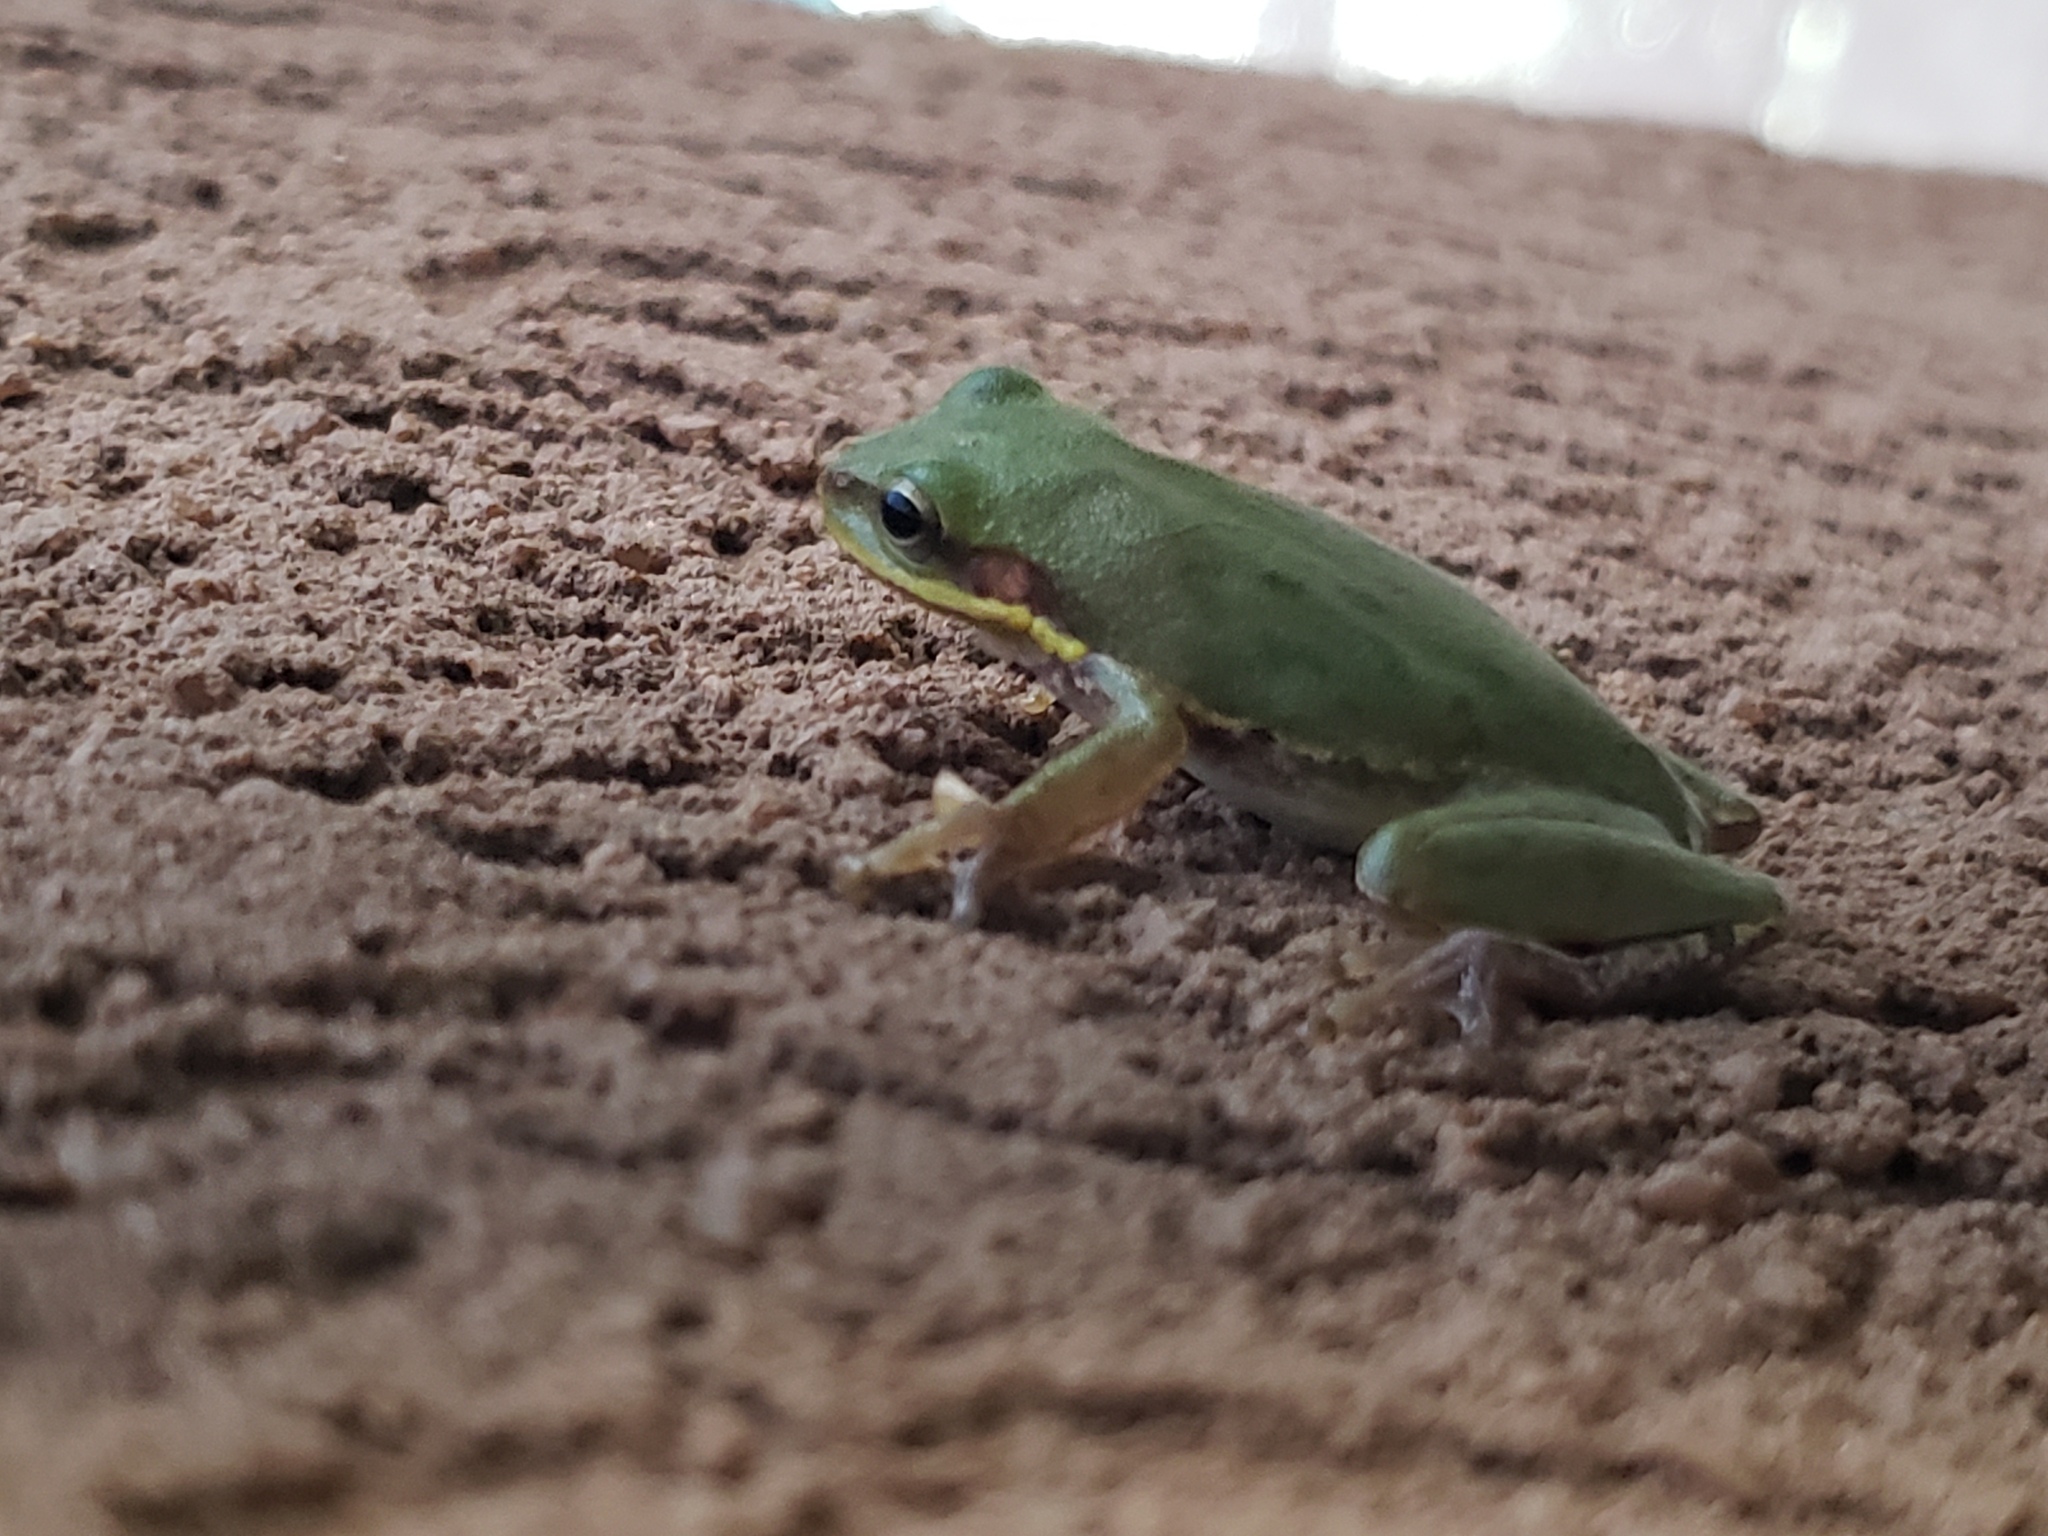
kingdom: Animalia
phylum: Chordata
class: Amphibia
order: Anura
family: Hylidae
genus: Dryophytes
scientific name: Dryophytes squirellus
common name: Squirrel treefrog
